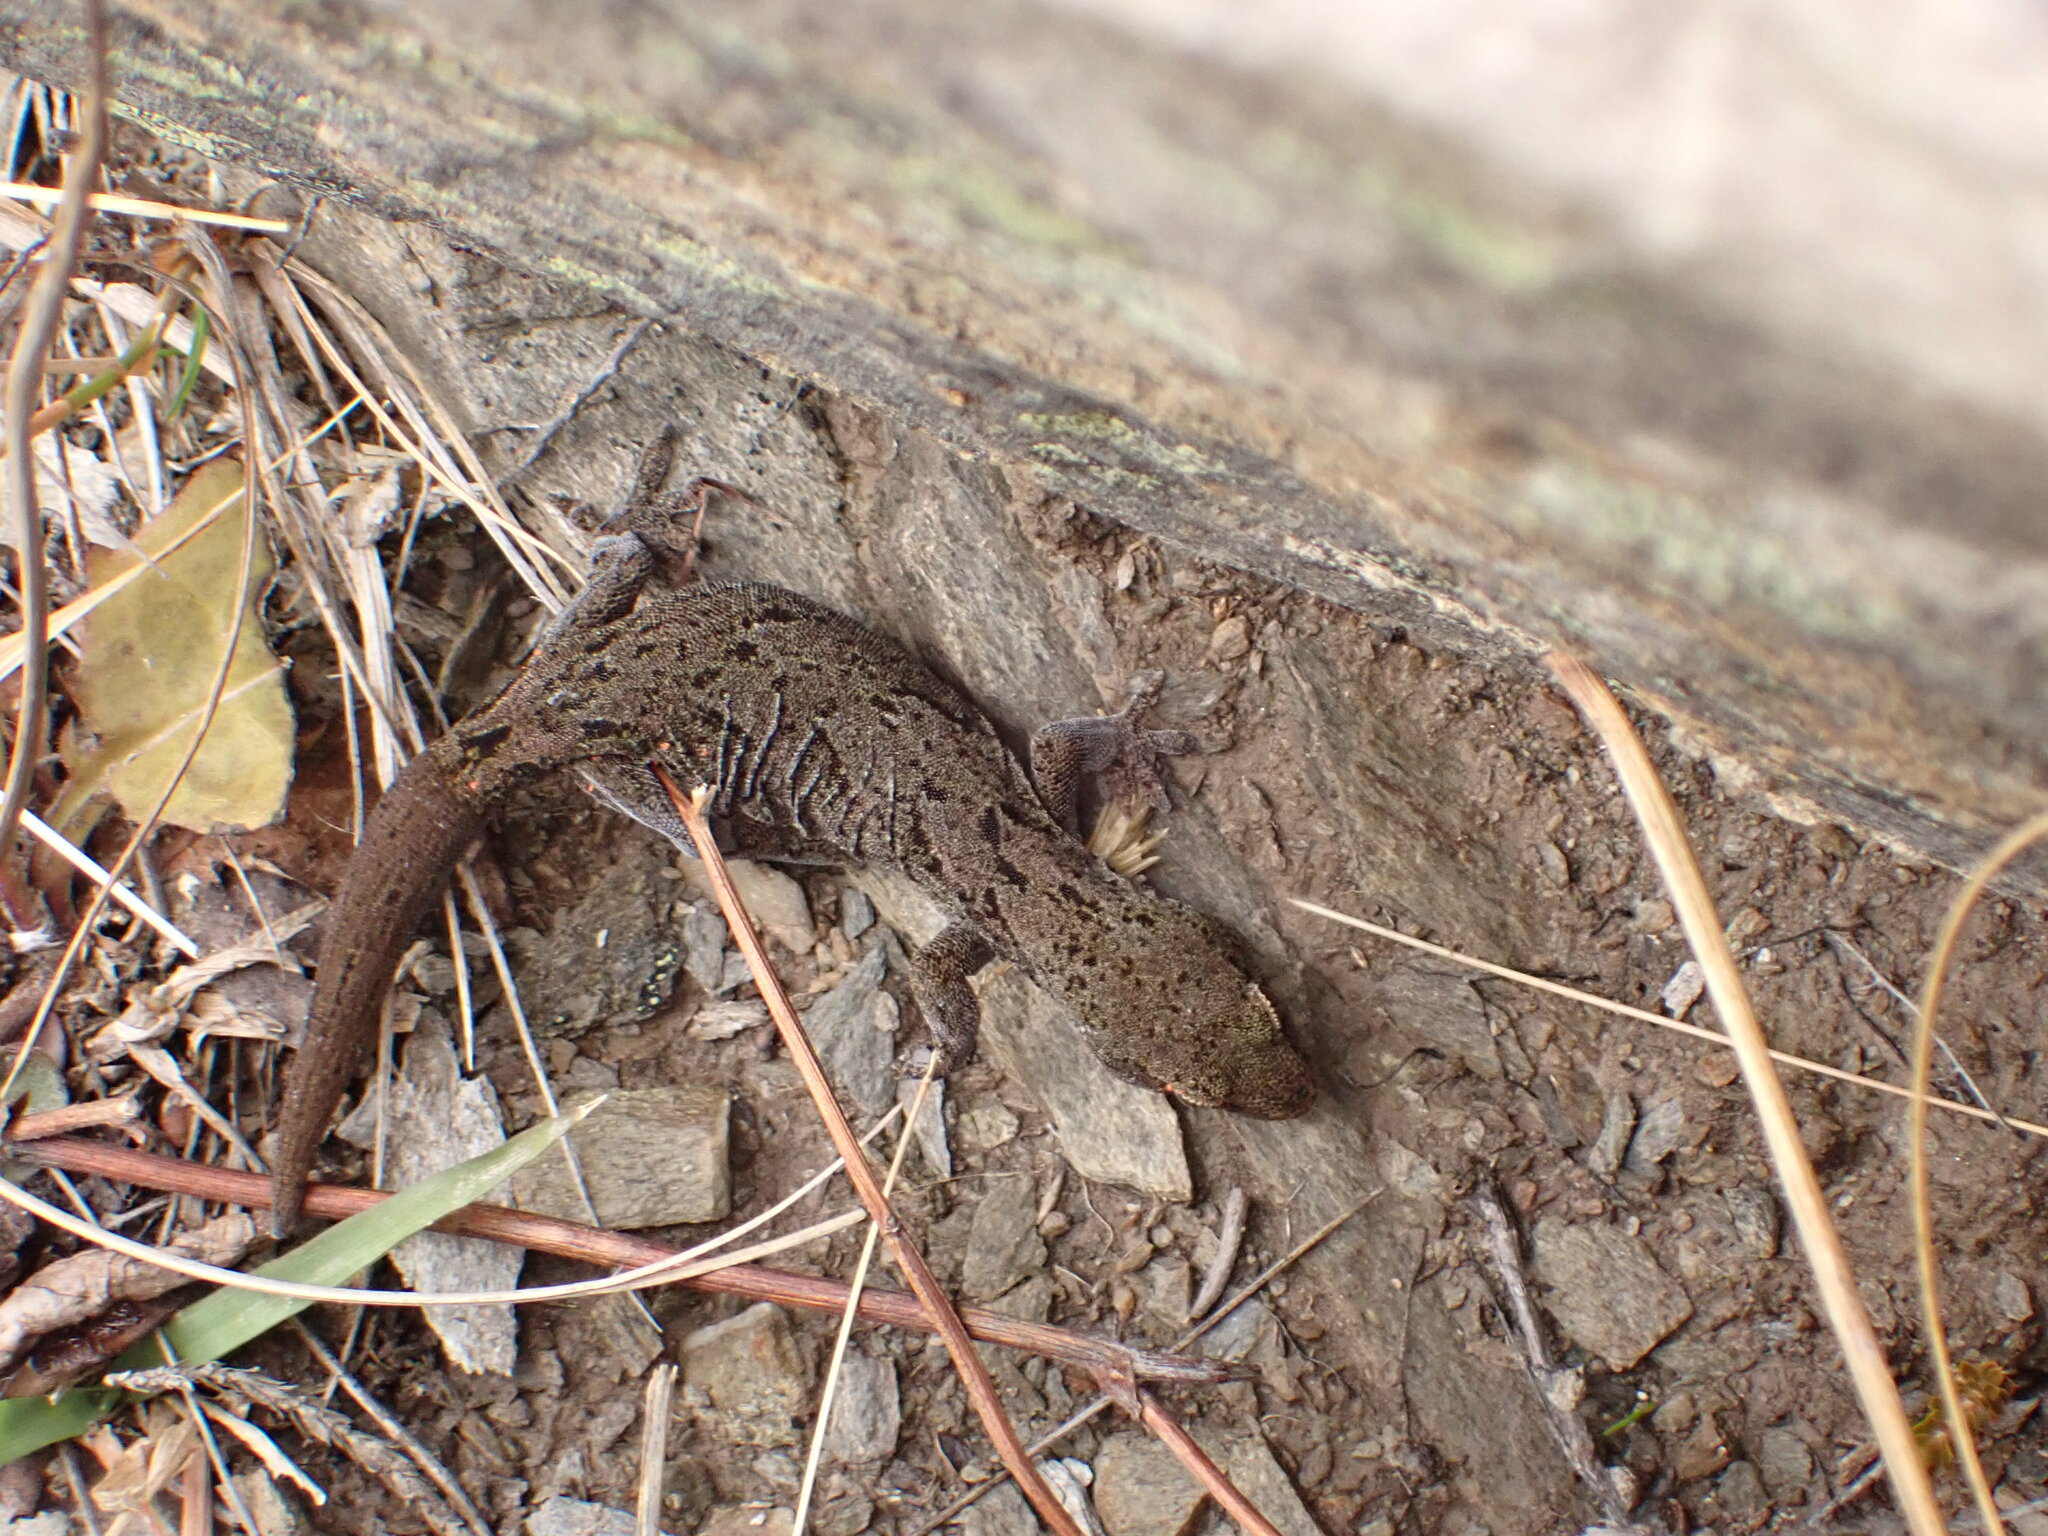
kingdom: Animalia
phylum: Chordata
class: Squamata
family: Diplodactylidae
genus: Woodworthia
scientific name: Woodworthia
